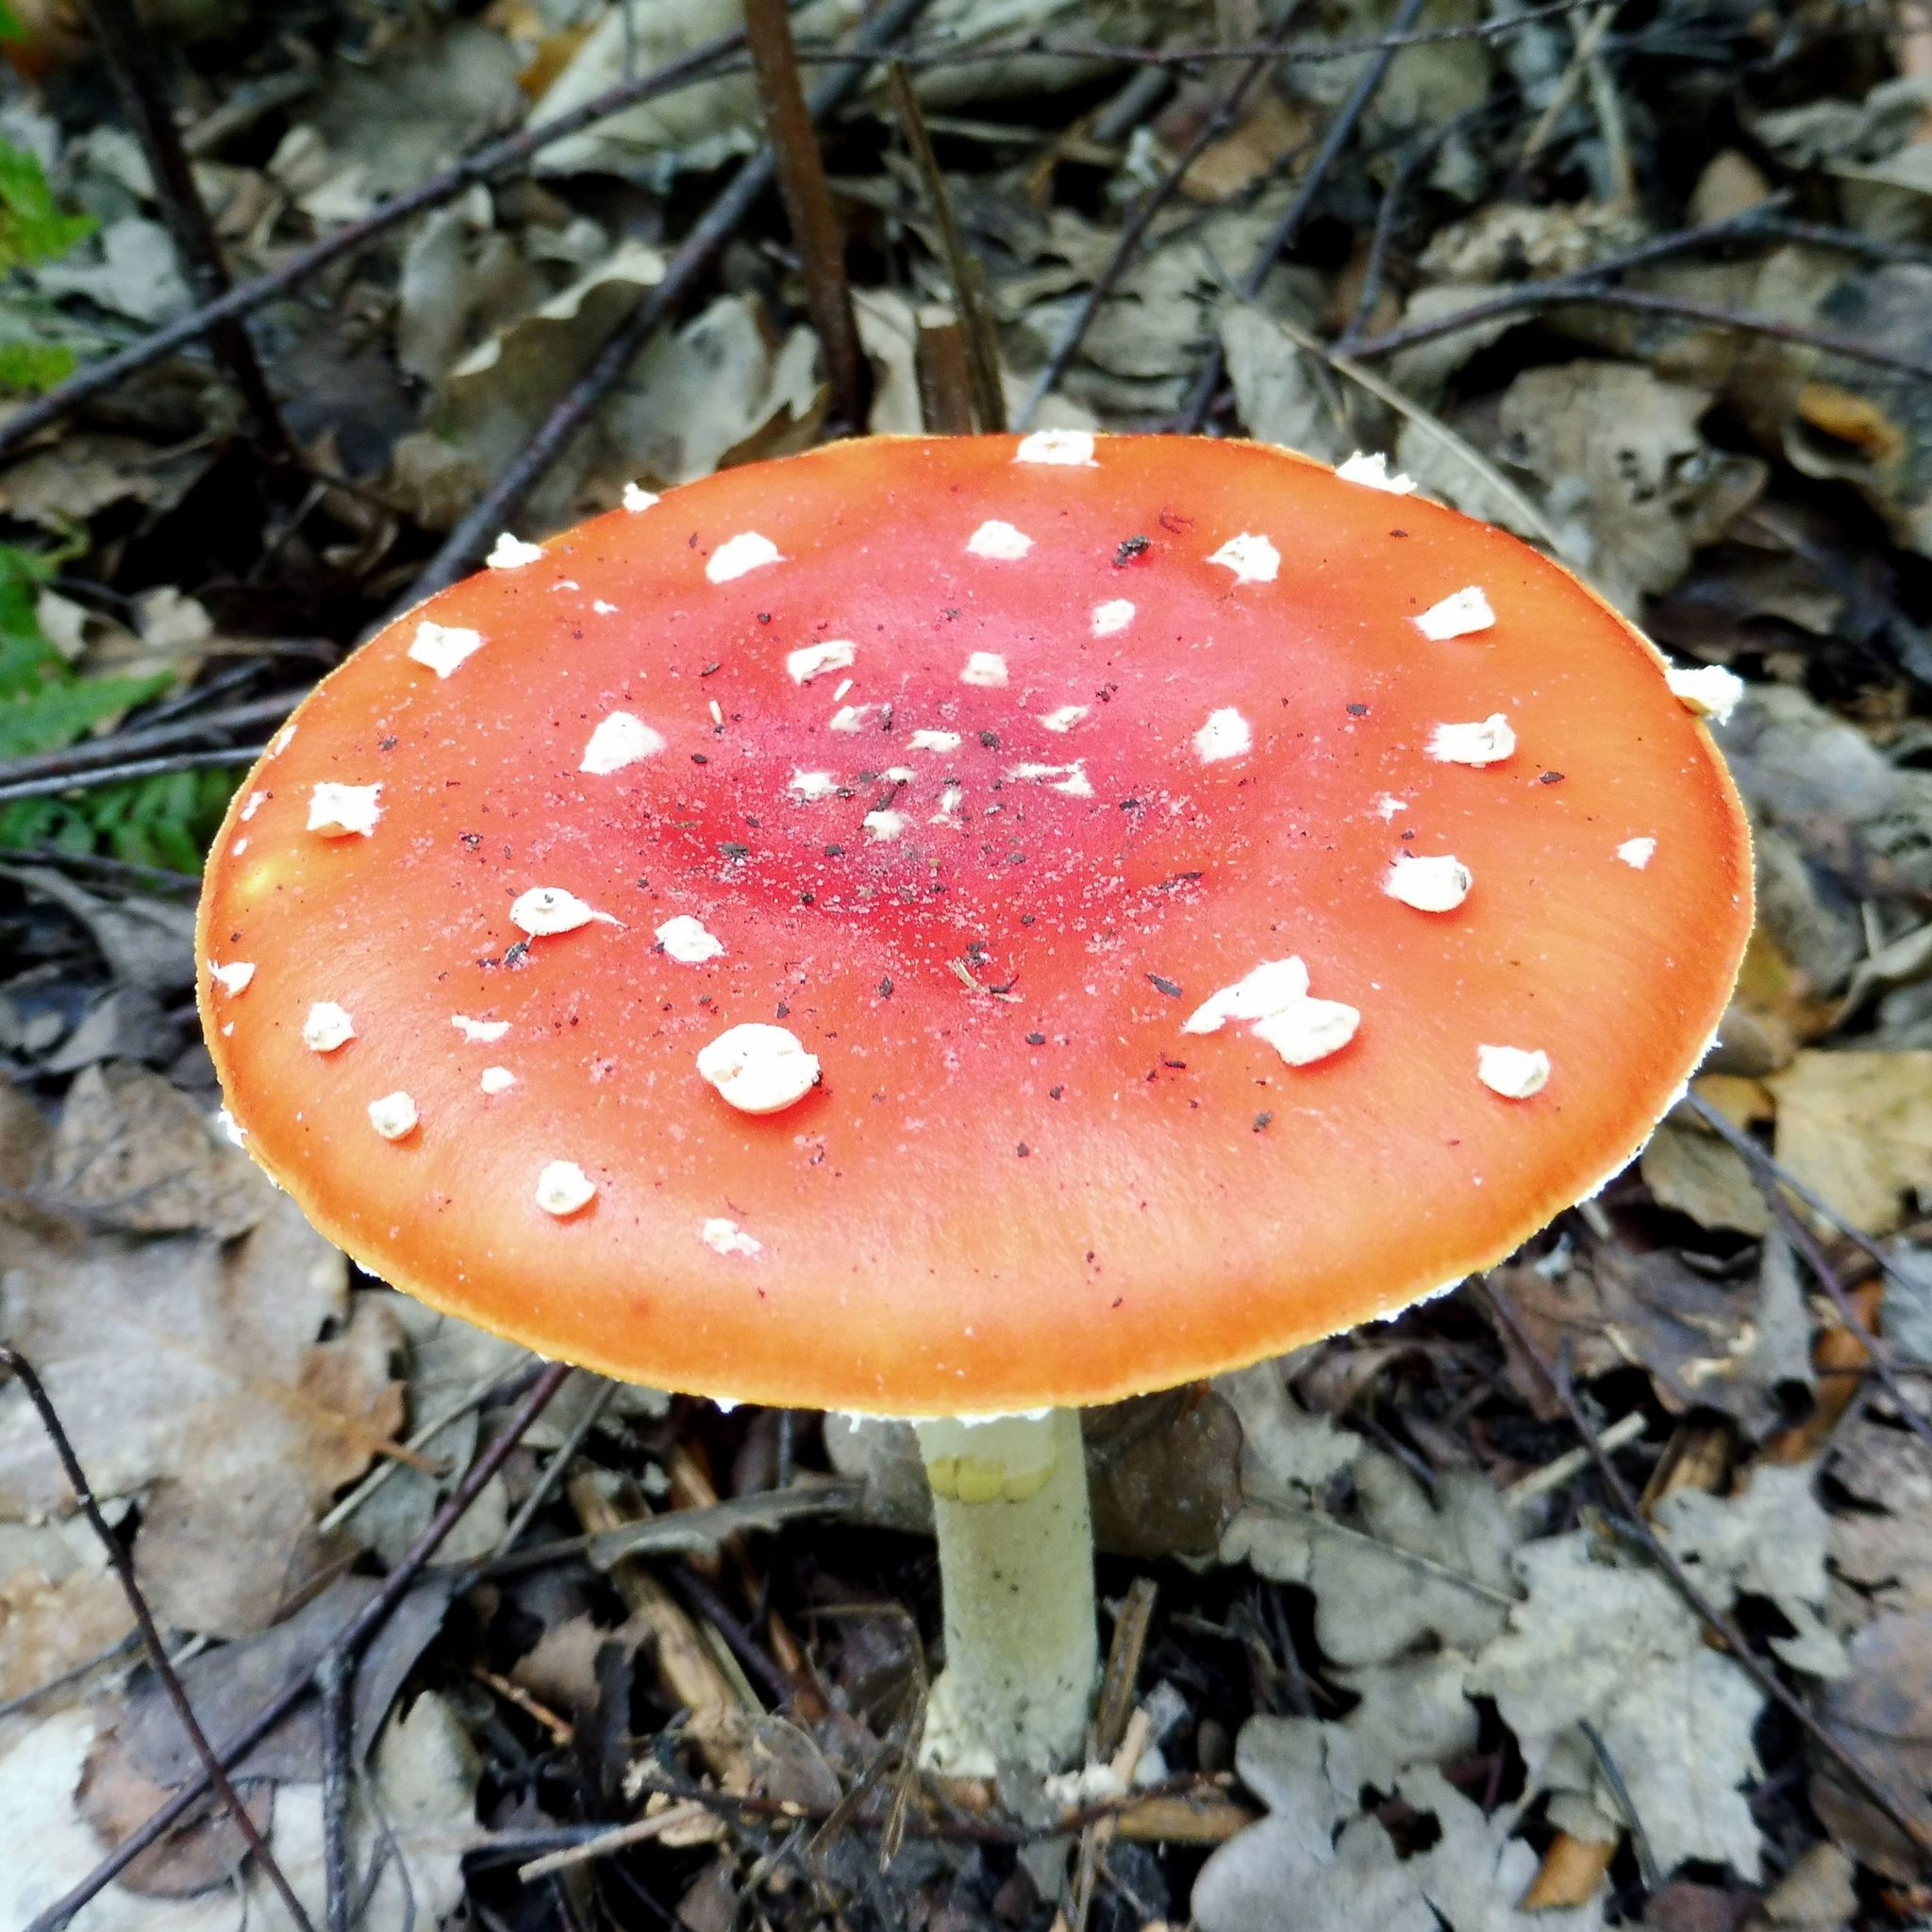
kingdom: Fungi
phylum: Basidiomycota
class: Agaricomycetes
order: Agaricales
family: Amanitaceae
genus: Amanita
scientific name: Amanita muscaria
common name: Fly agaric
